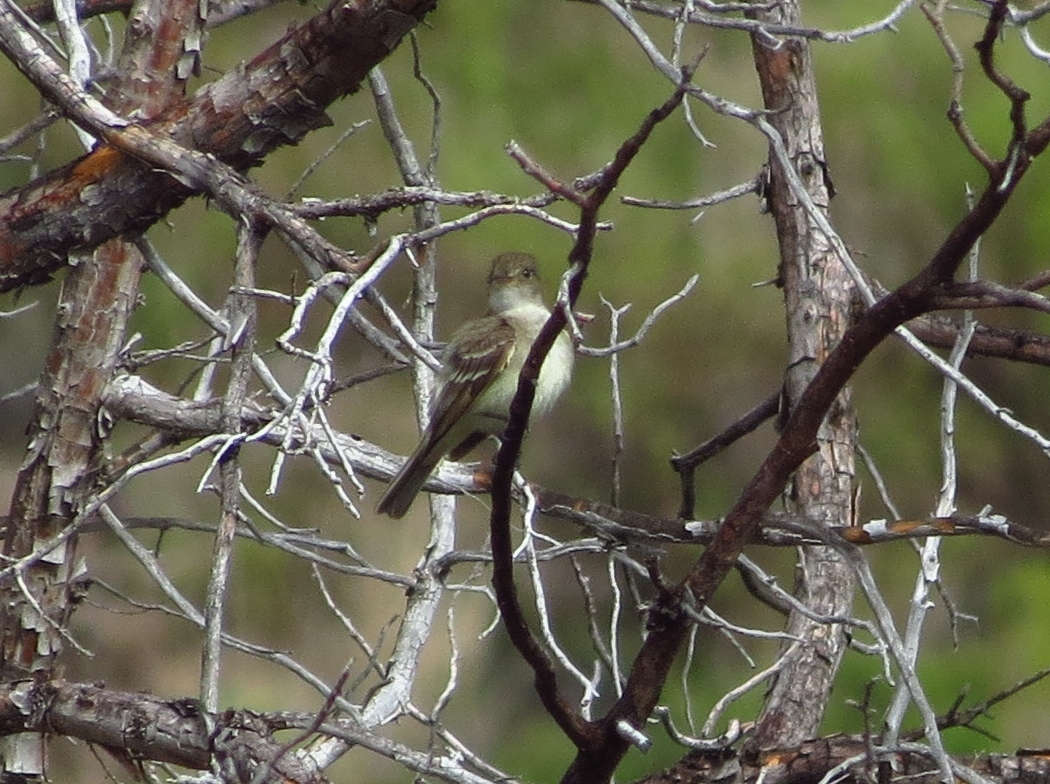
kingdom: Animalia
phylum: Chordata
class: Aves
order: Passeriformes
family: Tyrannidae
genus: Empidonax
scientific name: Empidonax traillii
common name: Willow flycatcher
